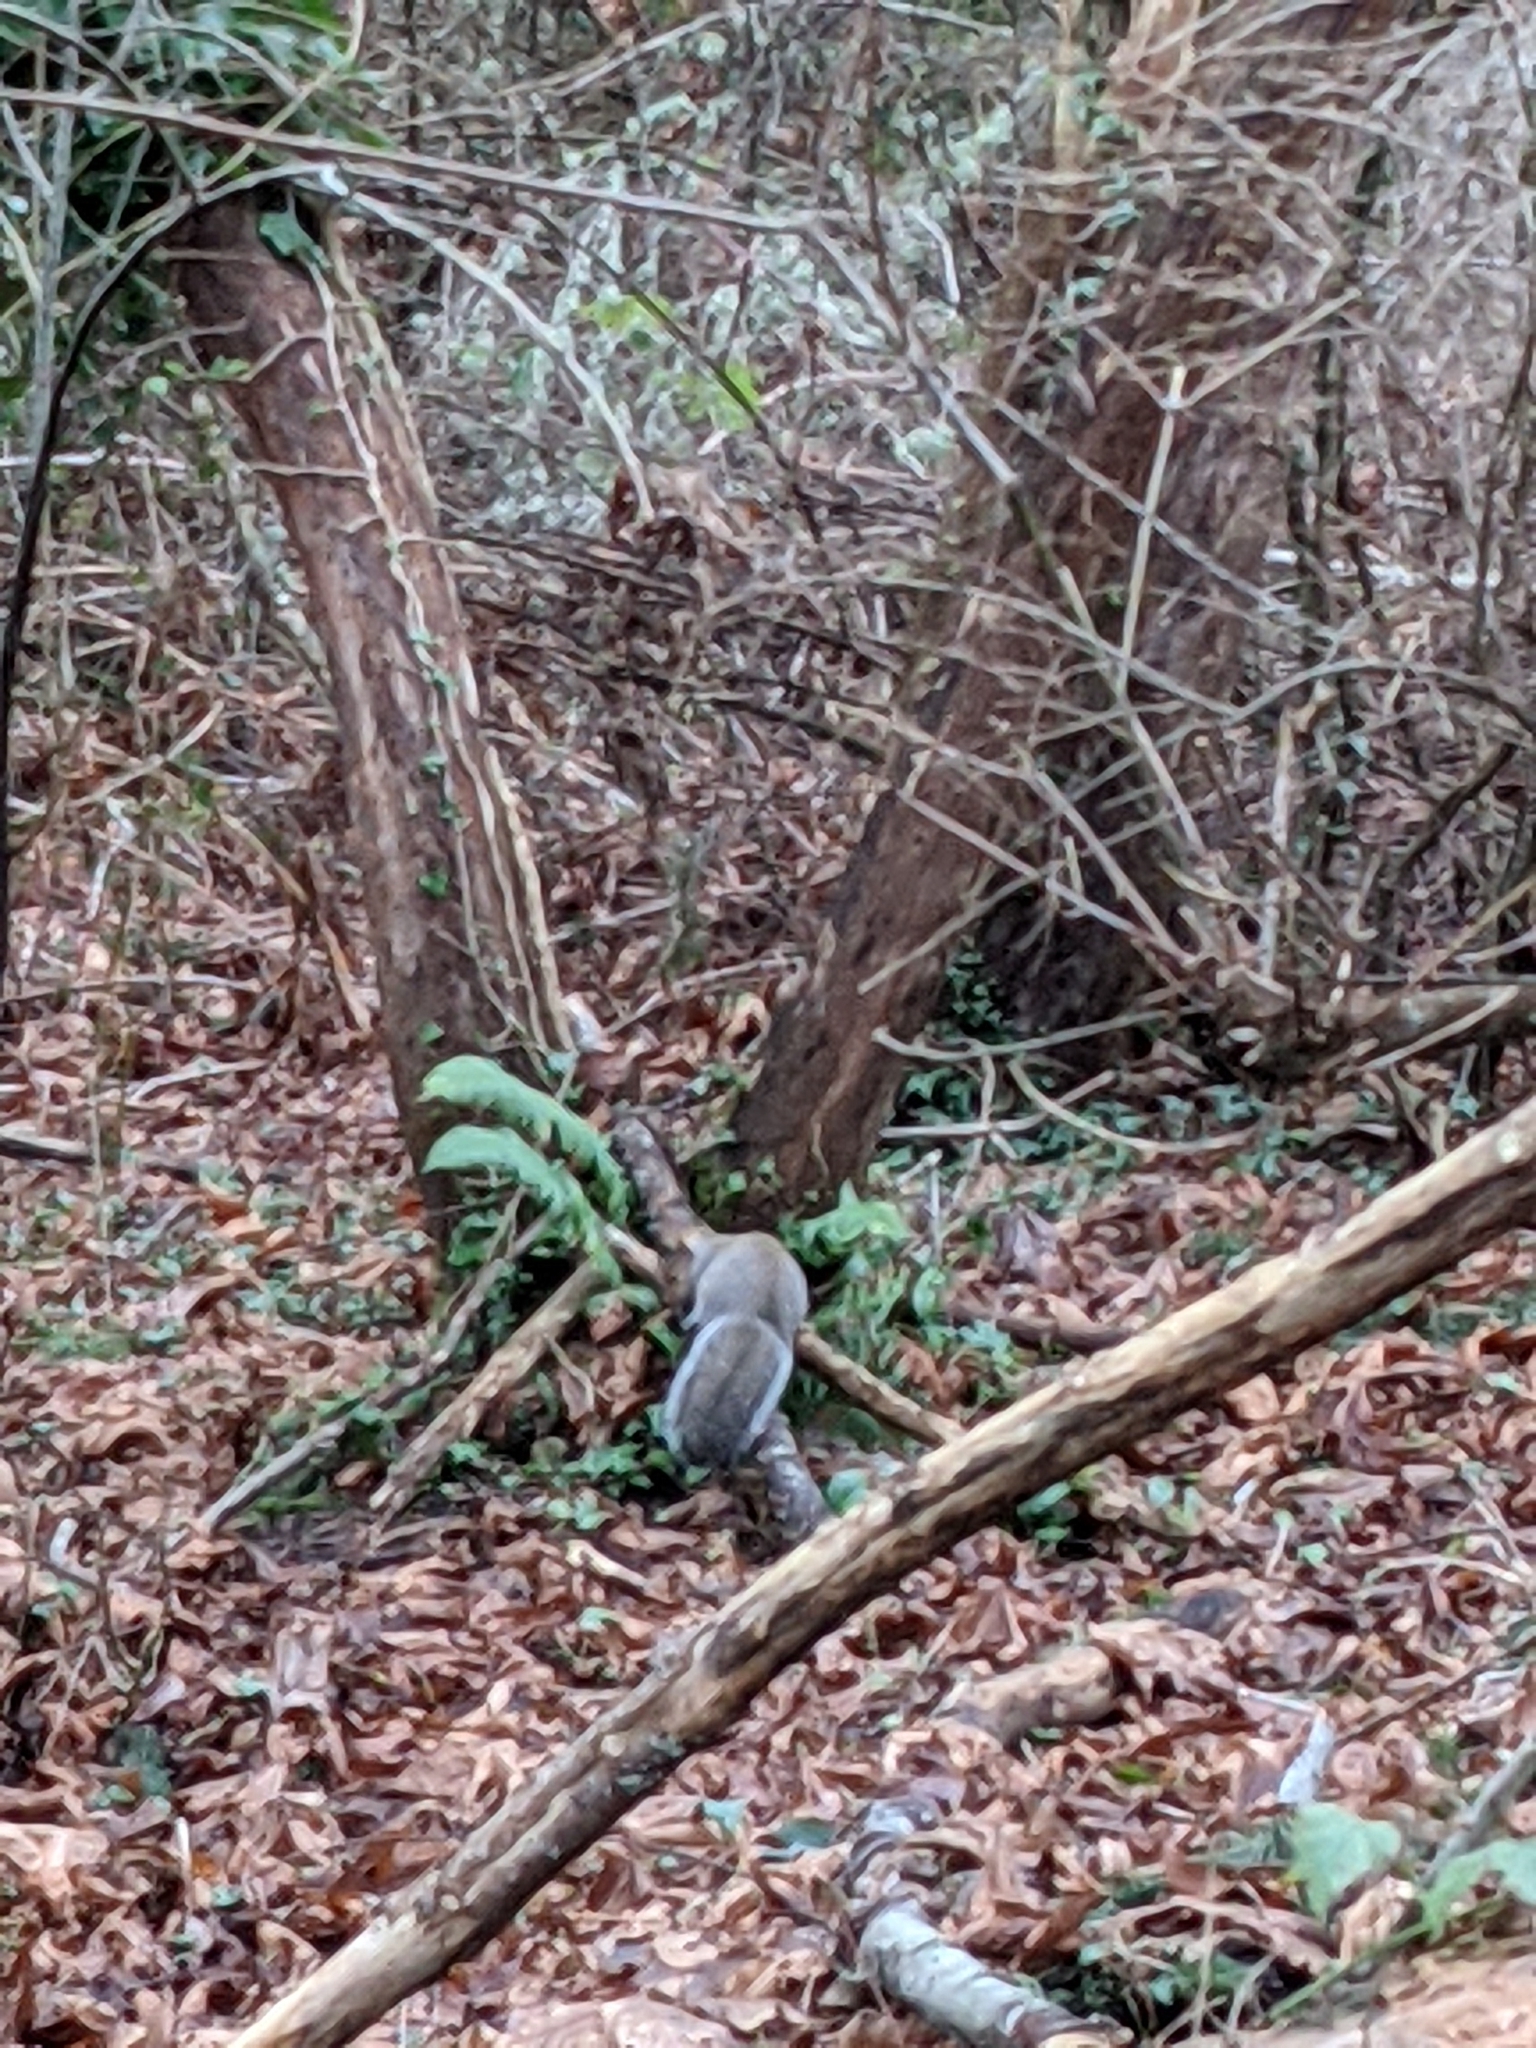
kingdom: Animalia
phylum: Chordata
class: Mammalia
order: Rodentia
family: Sciuridae
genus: Sciurus
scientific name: Sciurus carolinensis
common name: Eastern gray squirrel
